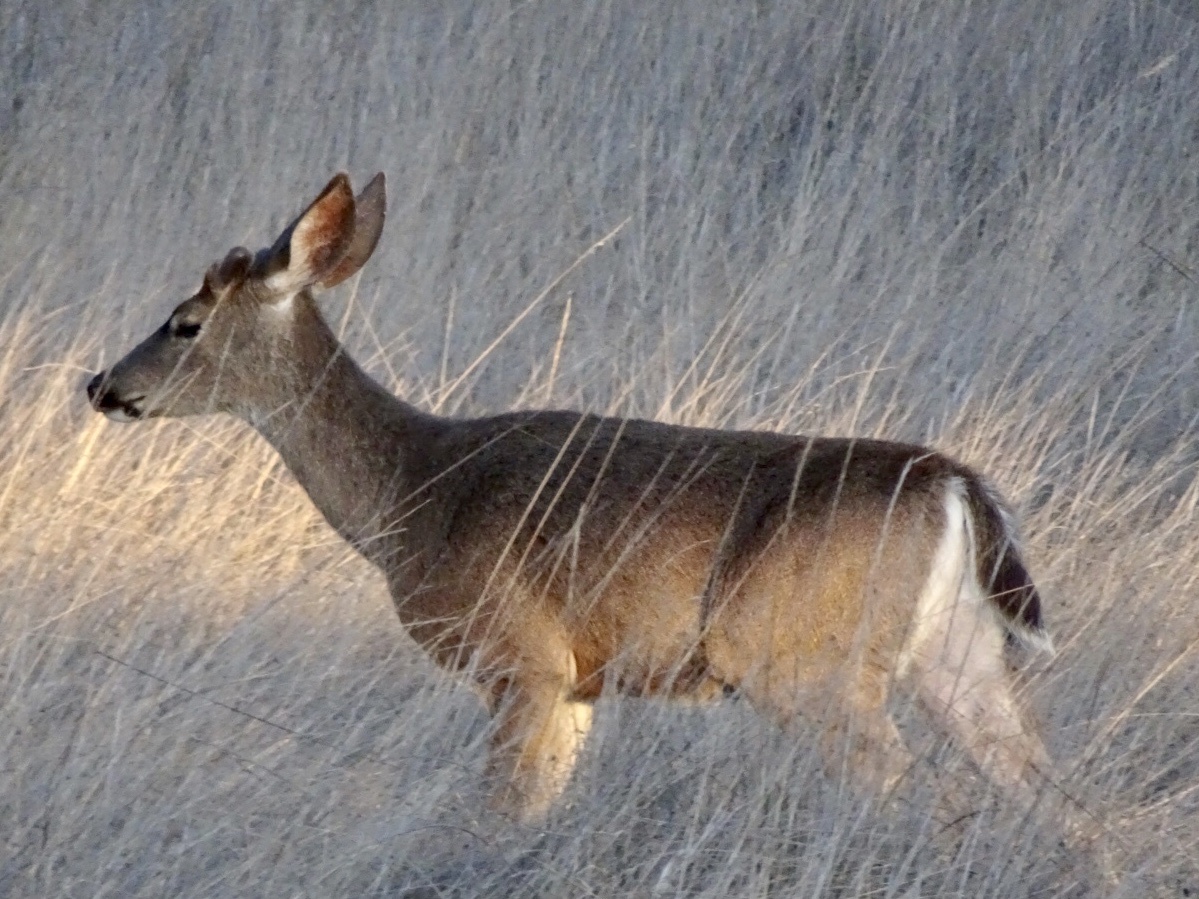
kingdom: Animalia
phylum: Chordata
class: Mammalia
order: Artiodactyla
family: Cervidae
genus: Odocoileus
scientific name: Odocoileus hemionus
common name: Mule deer
